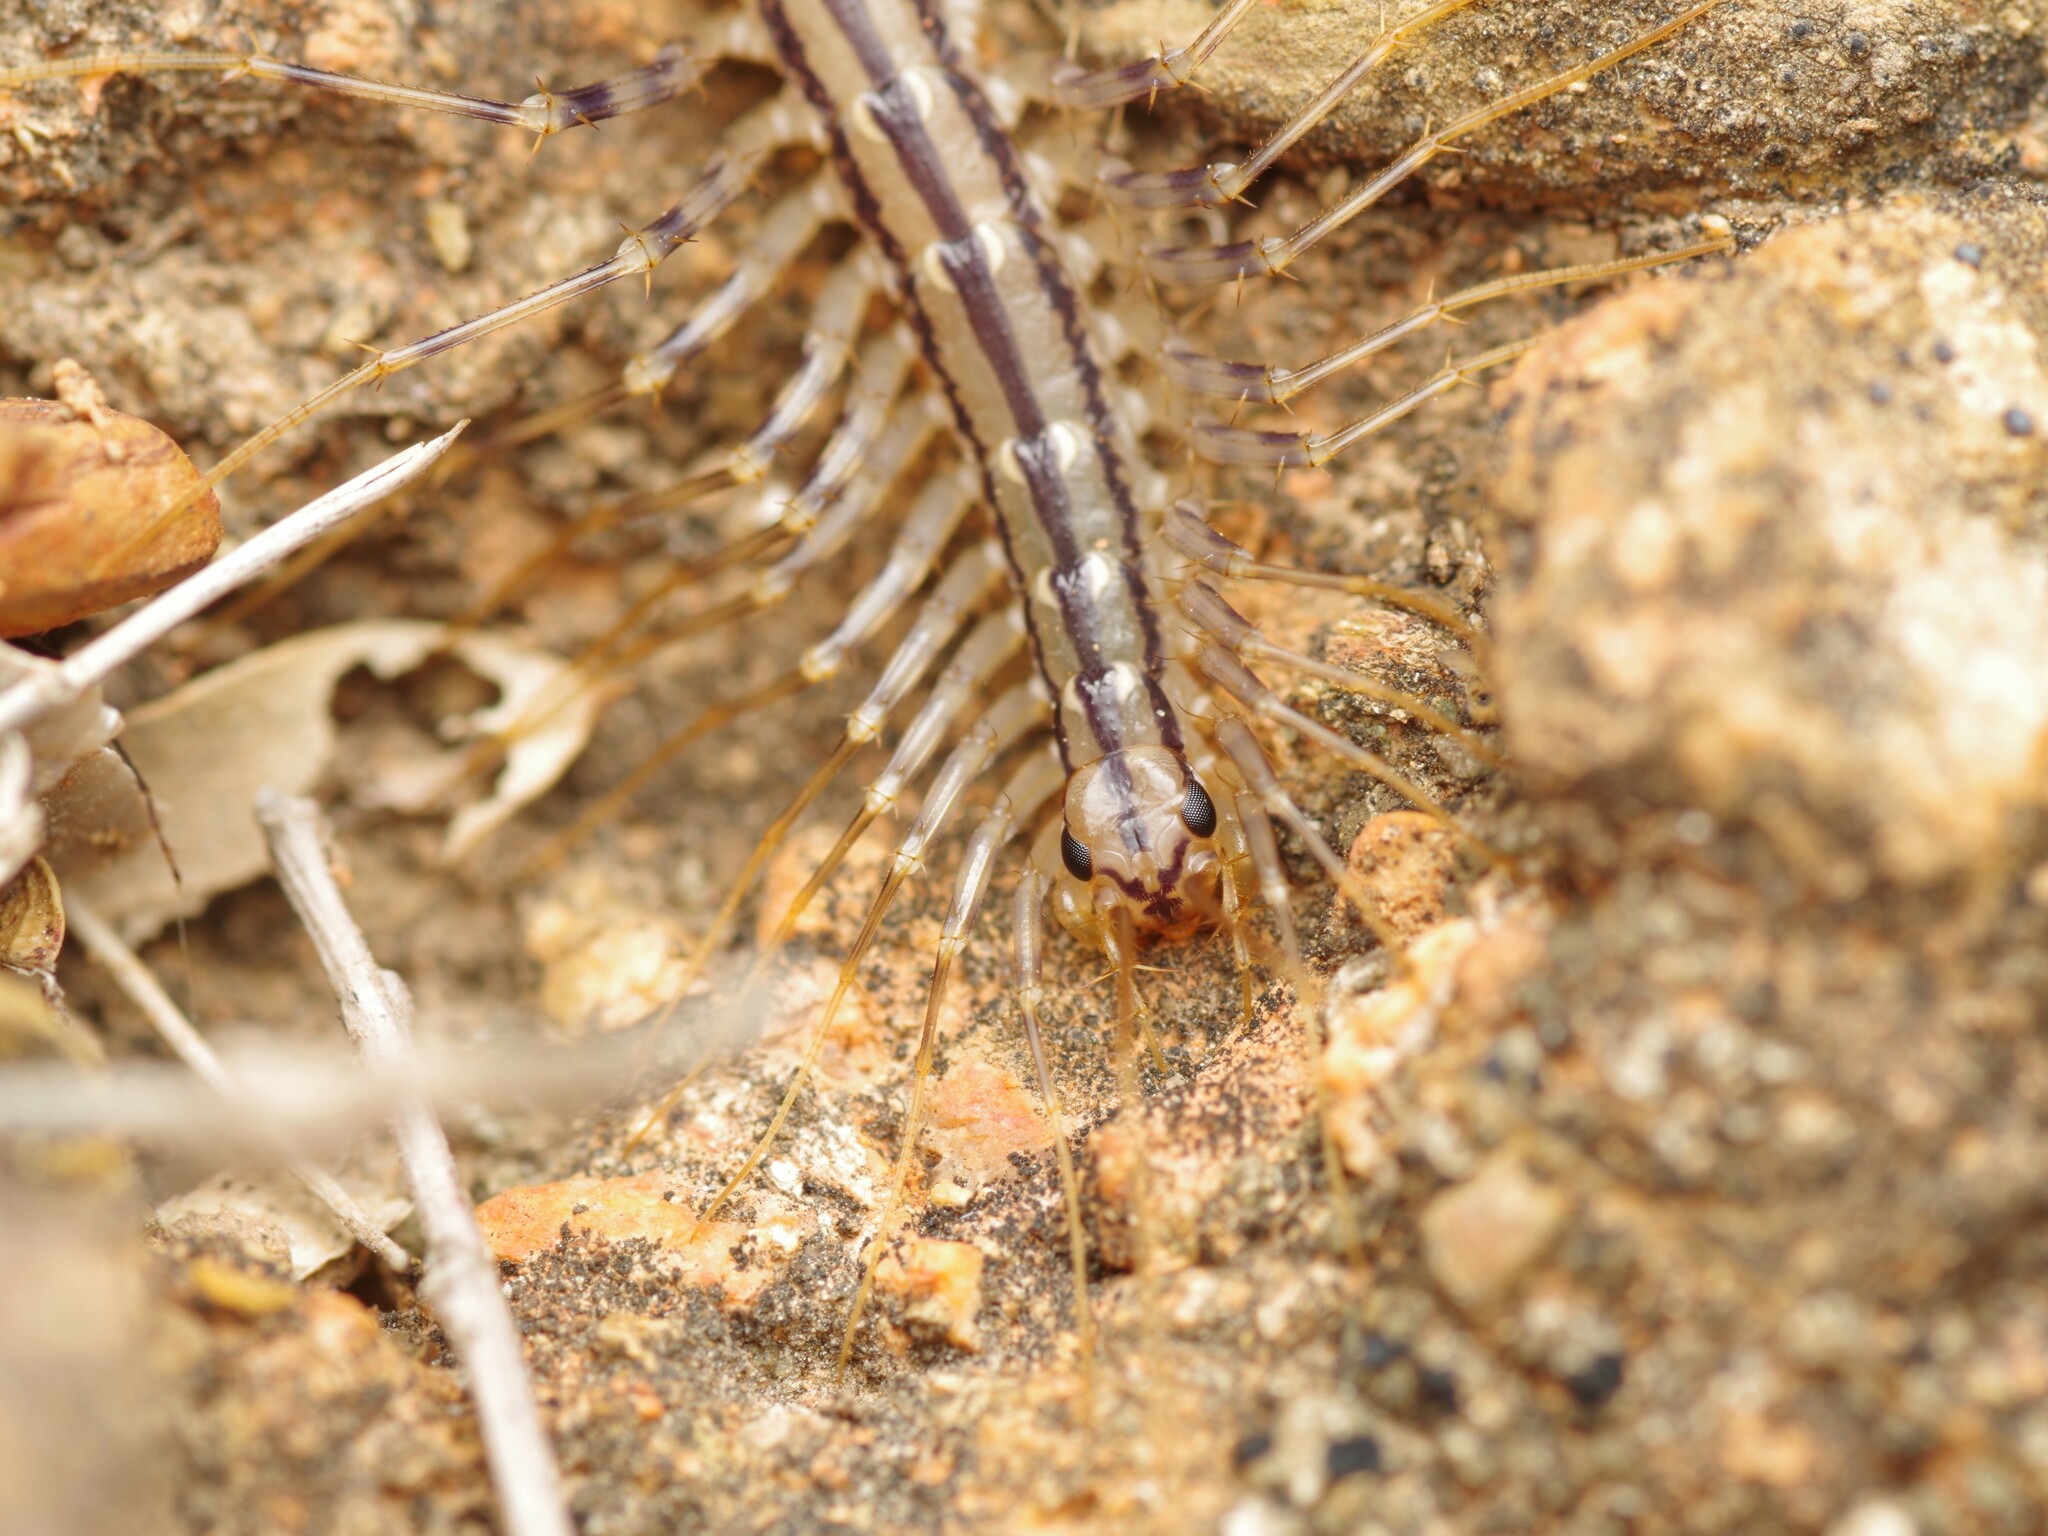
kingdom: Animalia
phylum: Arthropoda
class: Chilopoda
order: Scutigeromorpha
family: Scutigeridae
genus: Scutigera
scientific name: Scutigera coleoptrata
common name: House centipede
